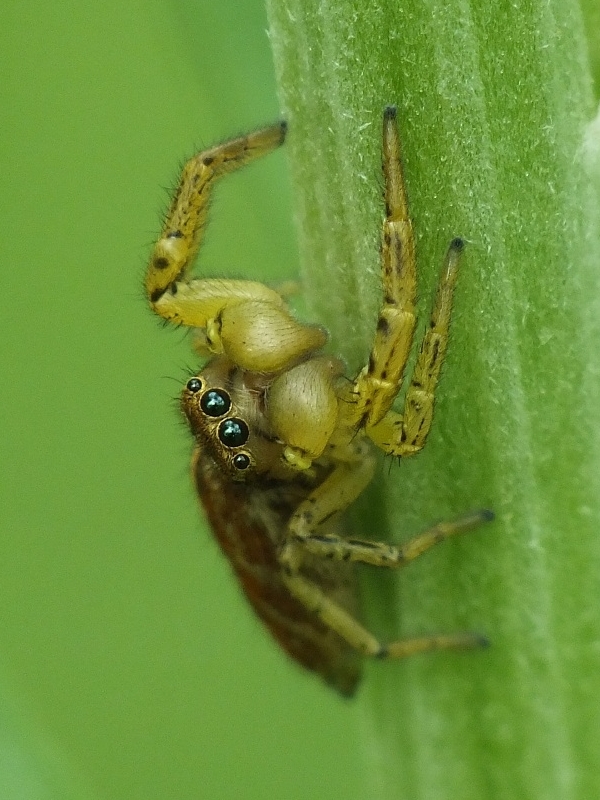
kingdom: Animalia
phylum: Arthropoda
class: Arachnida
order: Araneae
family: Salticidae
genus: Marpissa
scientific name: Marpissa pomatia
